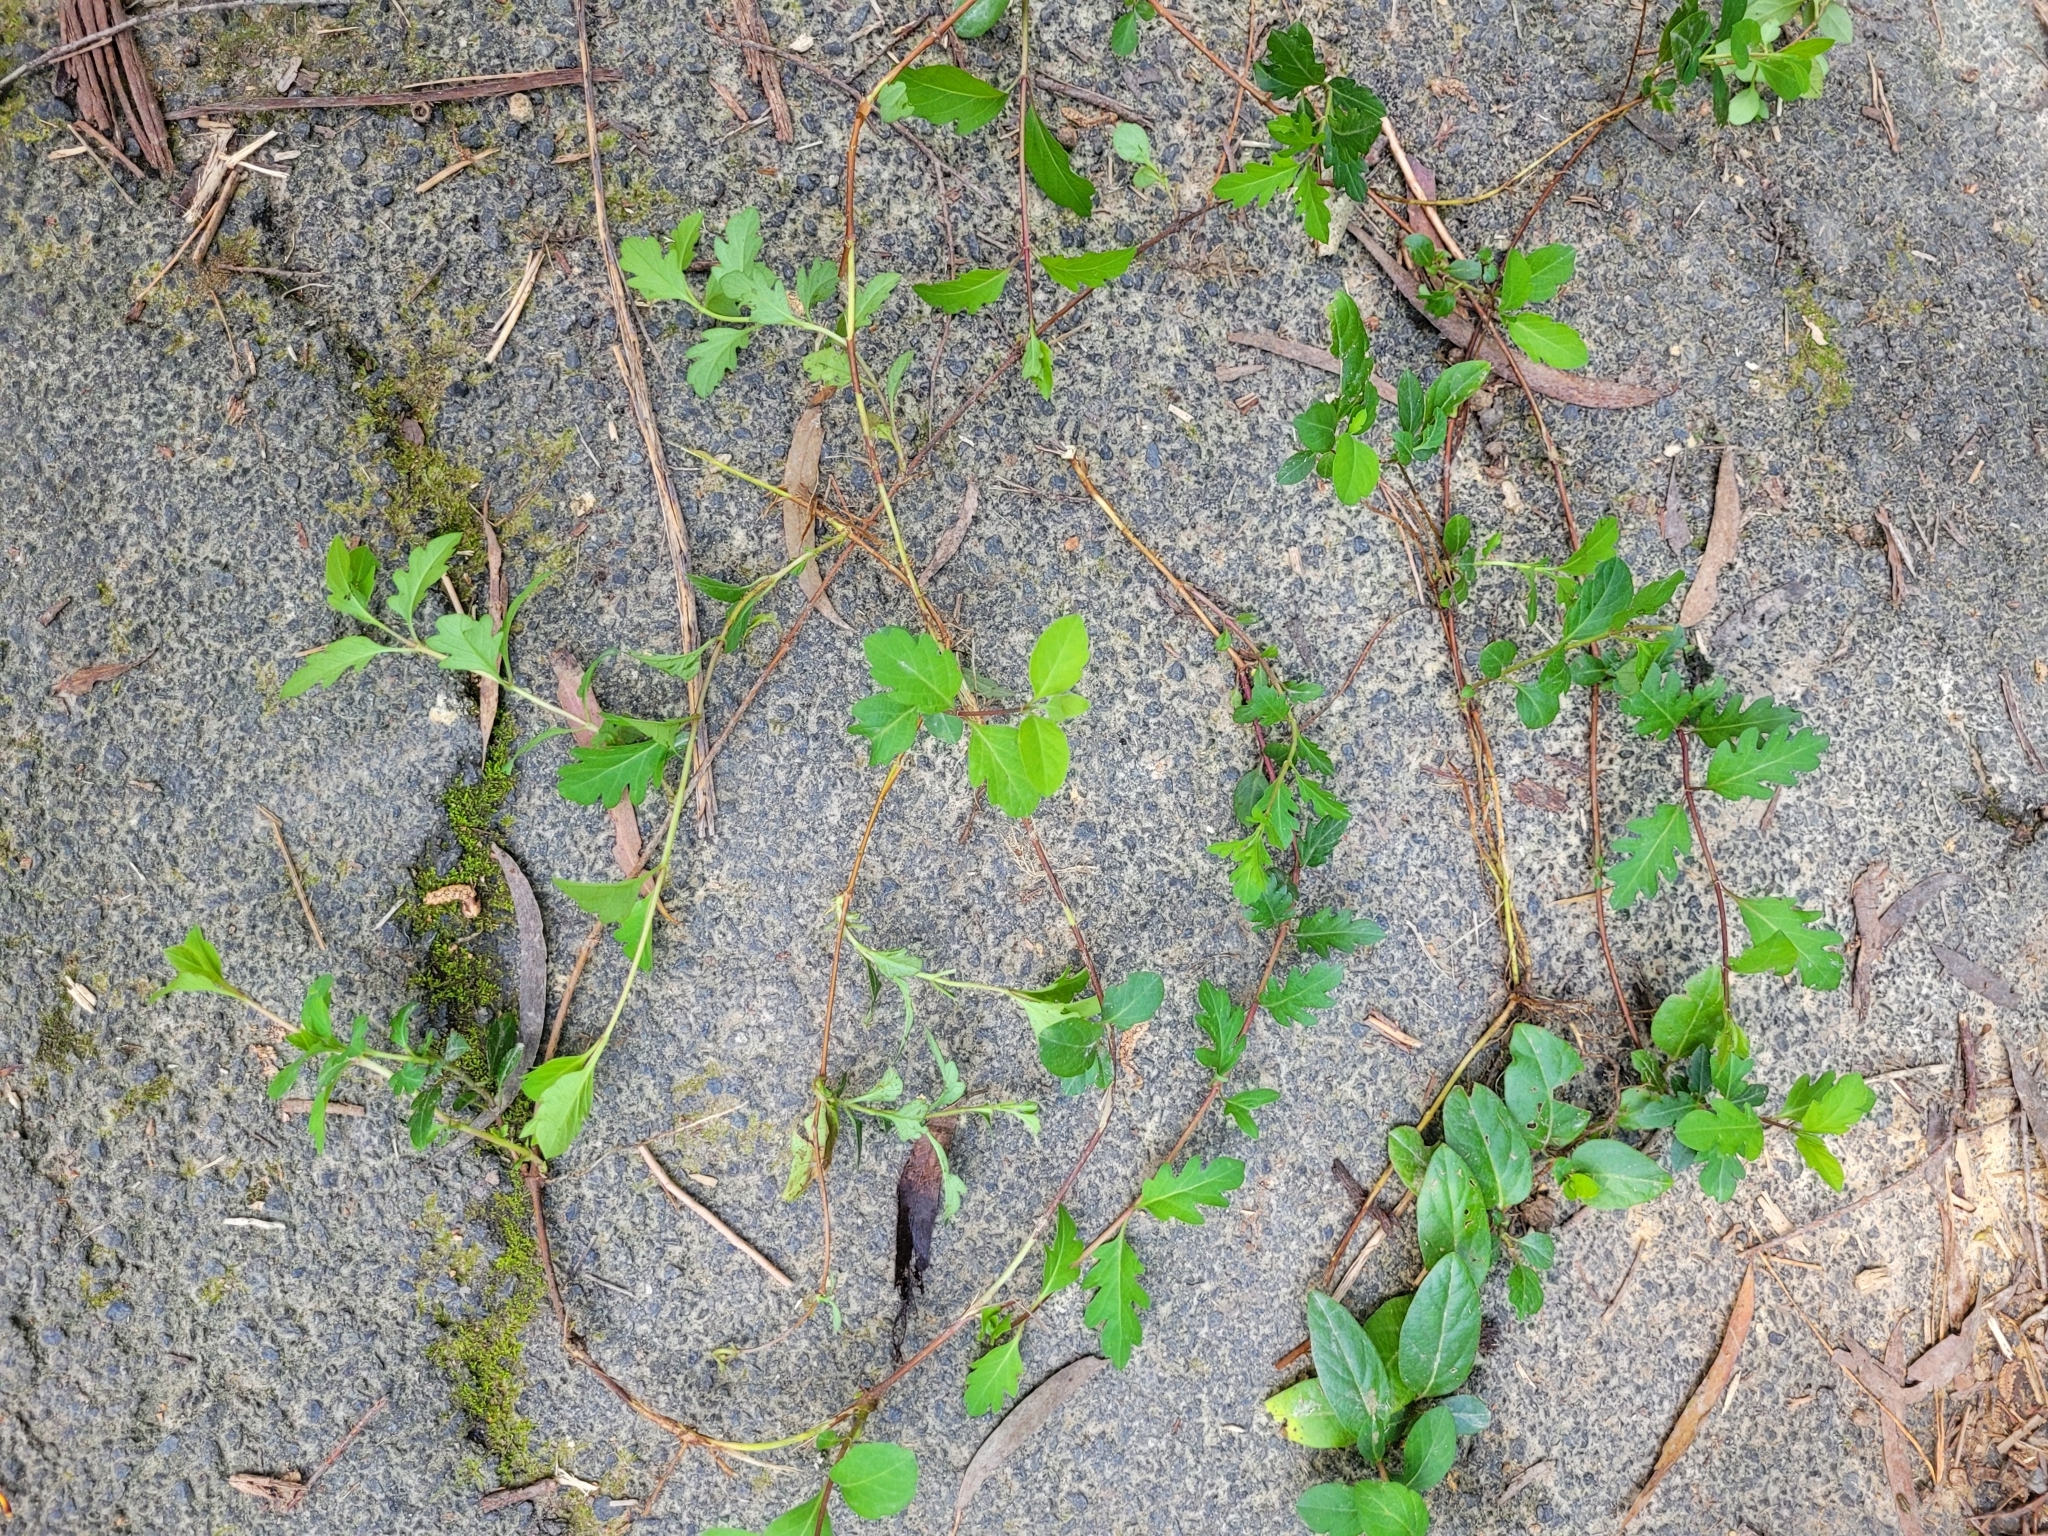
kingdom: Plantae
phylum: Tracheophyta
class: Magnoliopsida
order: Dipsacales
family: Caprifoliaceae
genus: Lonicera
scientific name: Lonicera japonica
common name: Japanese honeysuckle
